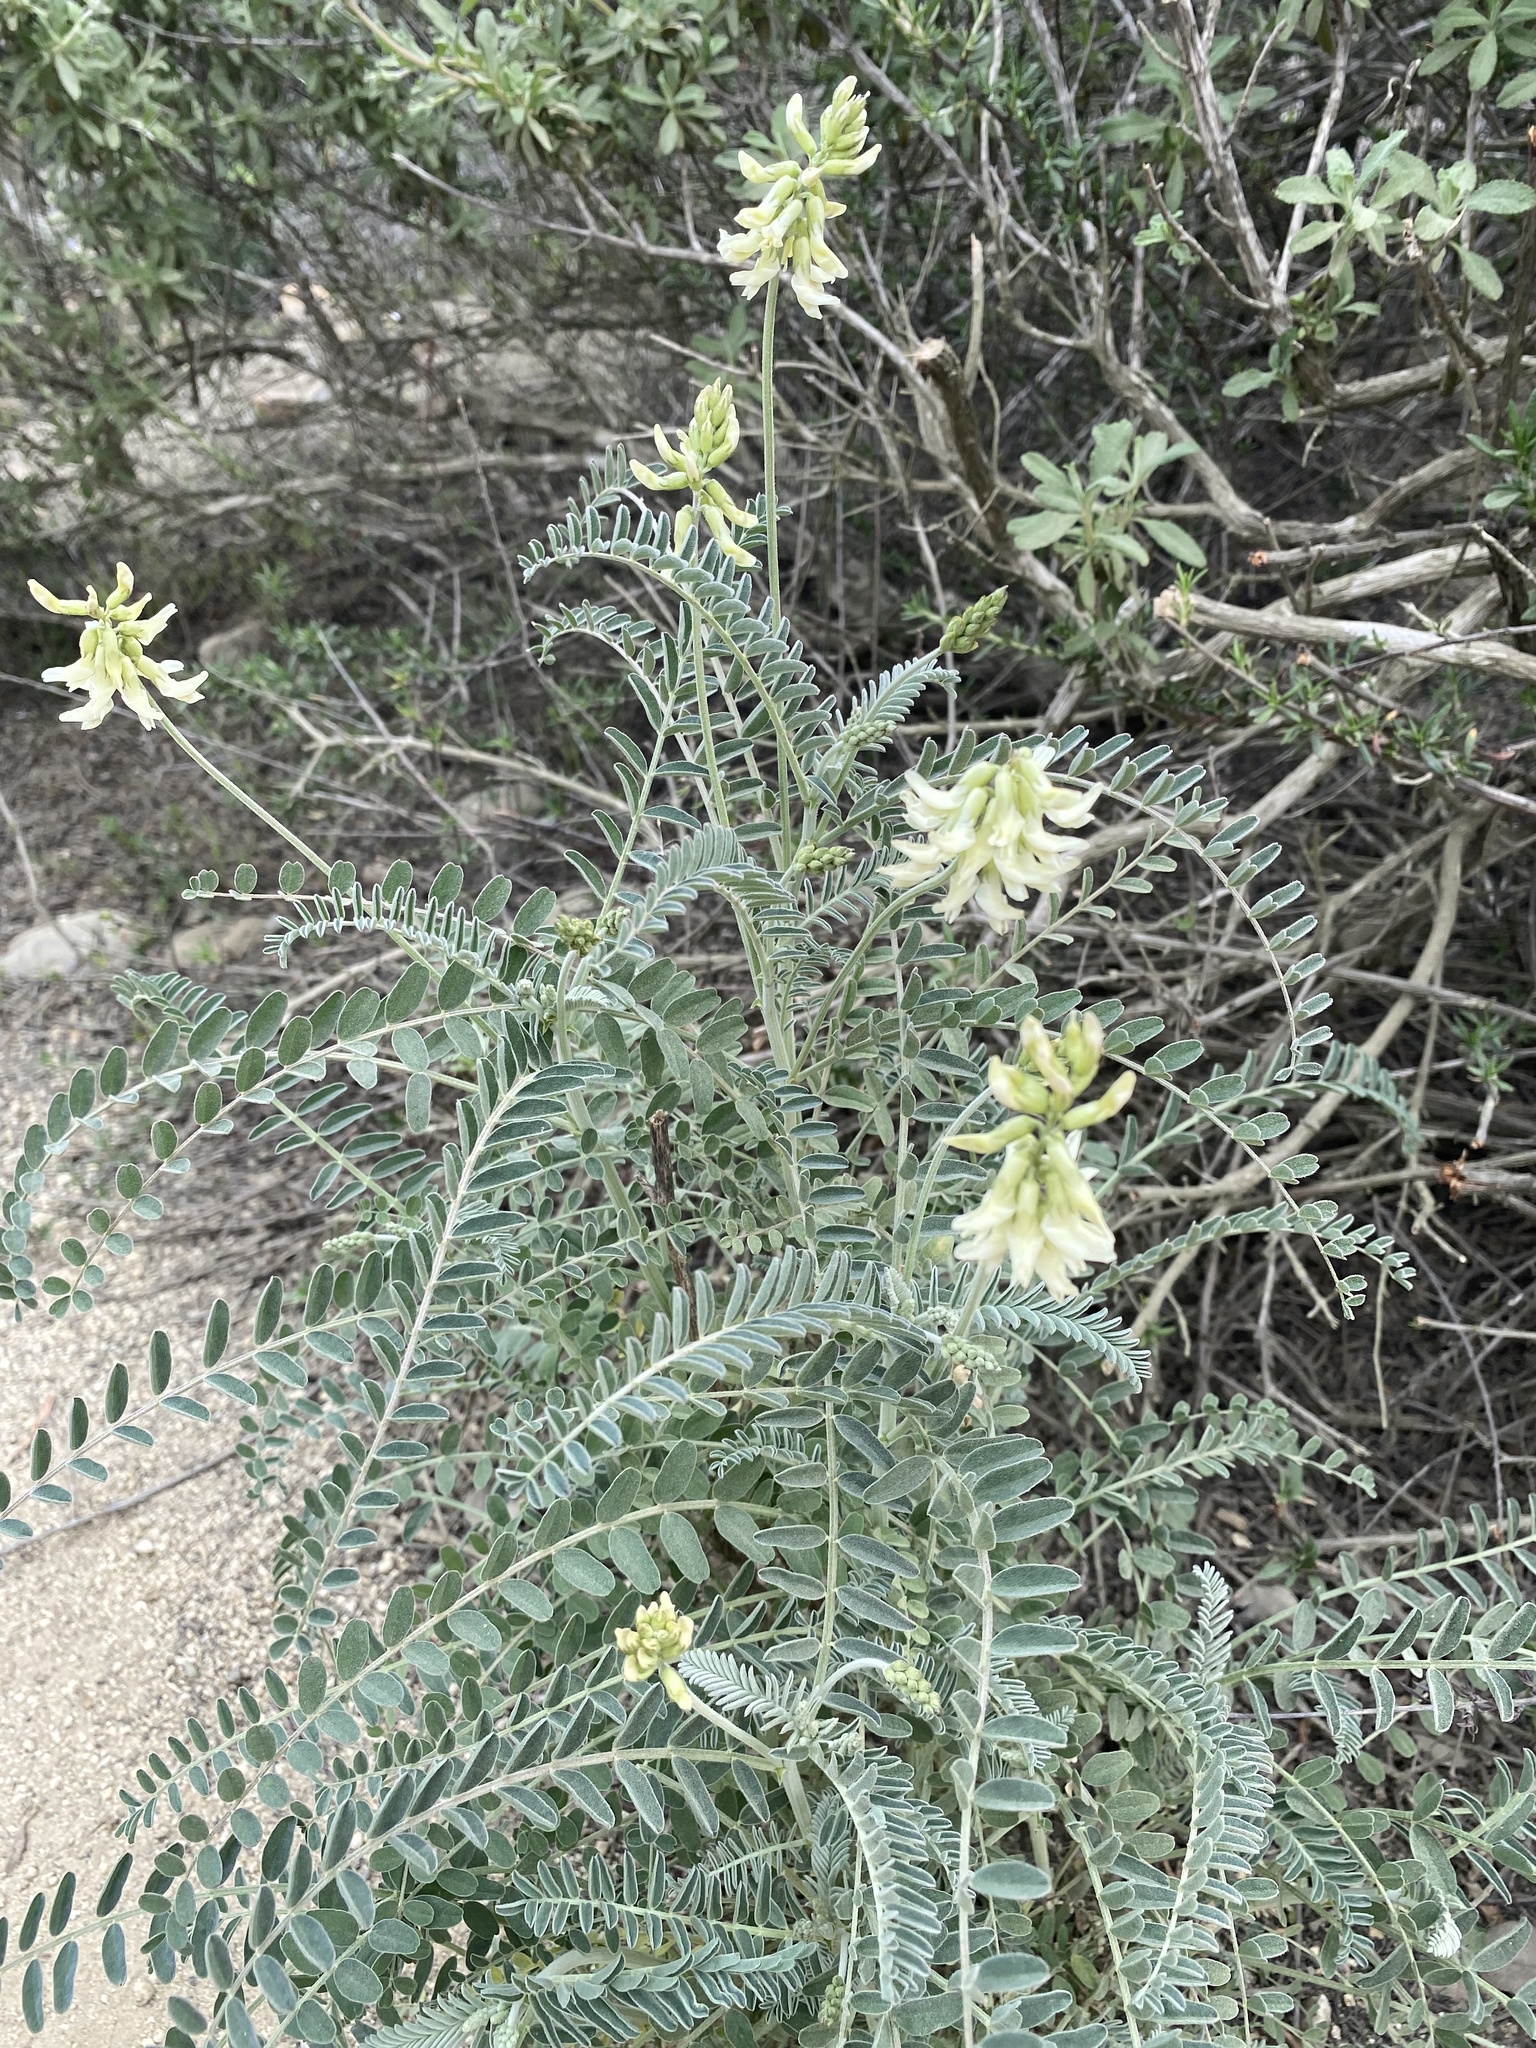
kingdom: Plantae
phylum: Tracheophyta
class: Magnoliopsida
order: Fabales
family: Fabaceae
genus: Astragalus
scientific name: Astragalus trichopodus
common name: Santa barbara milk-vetch
